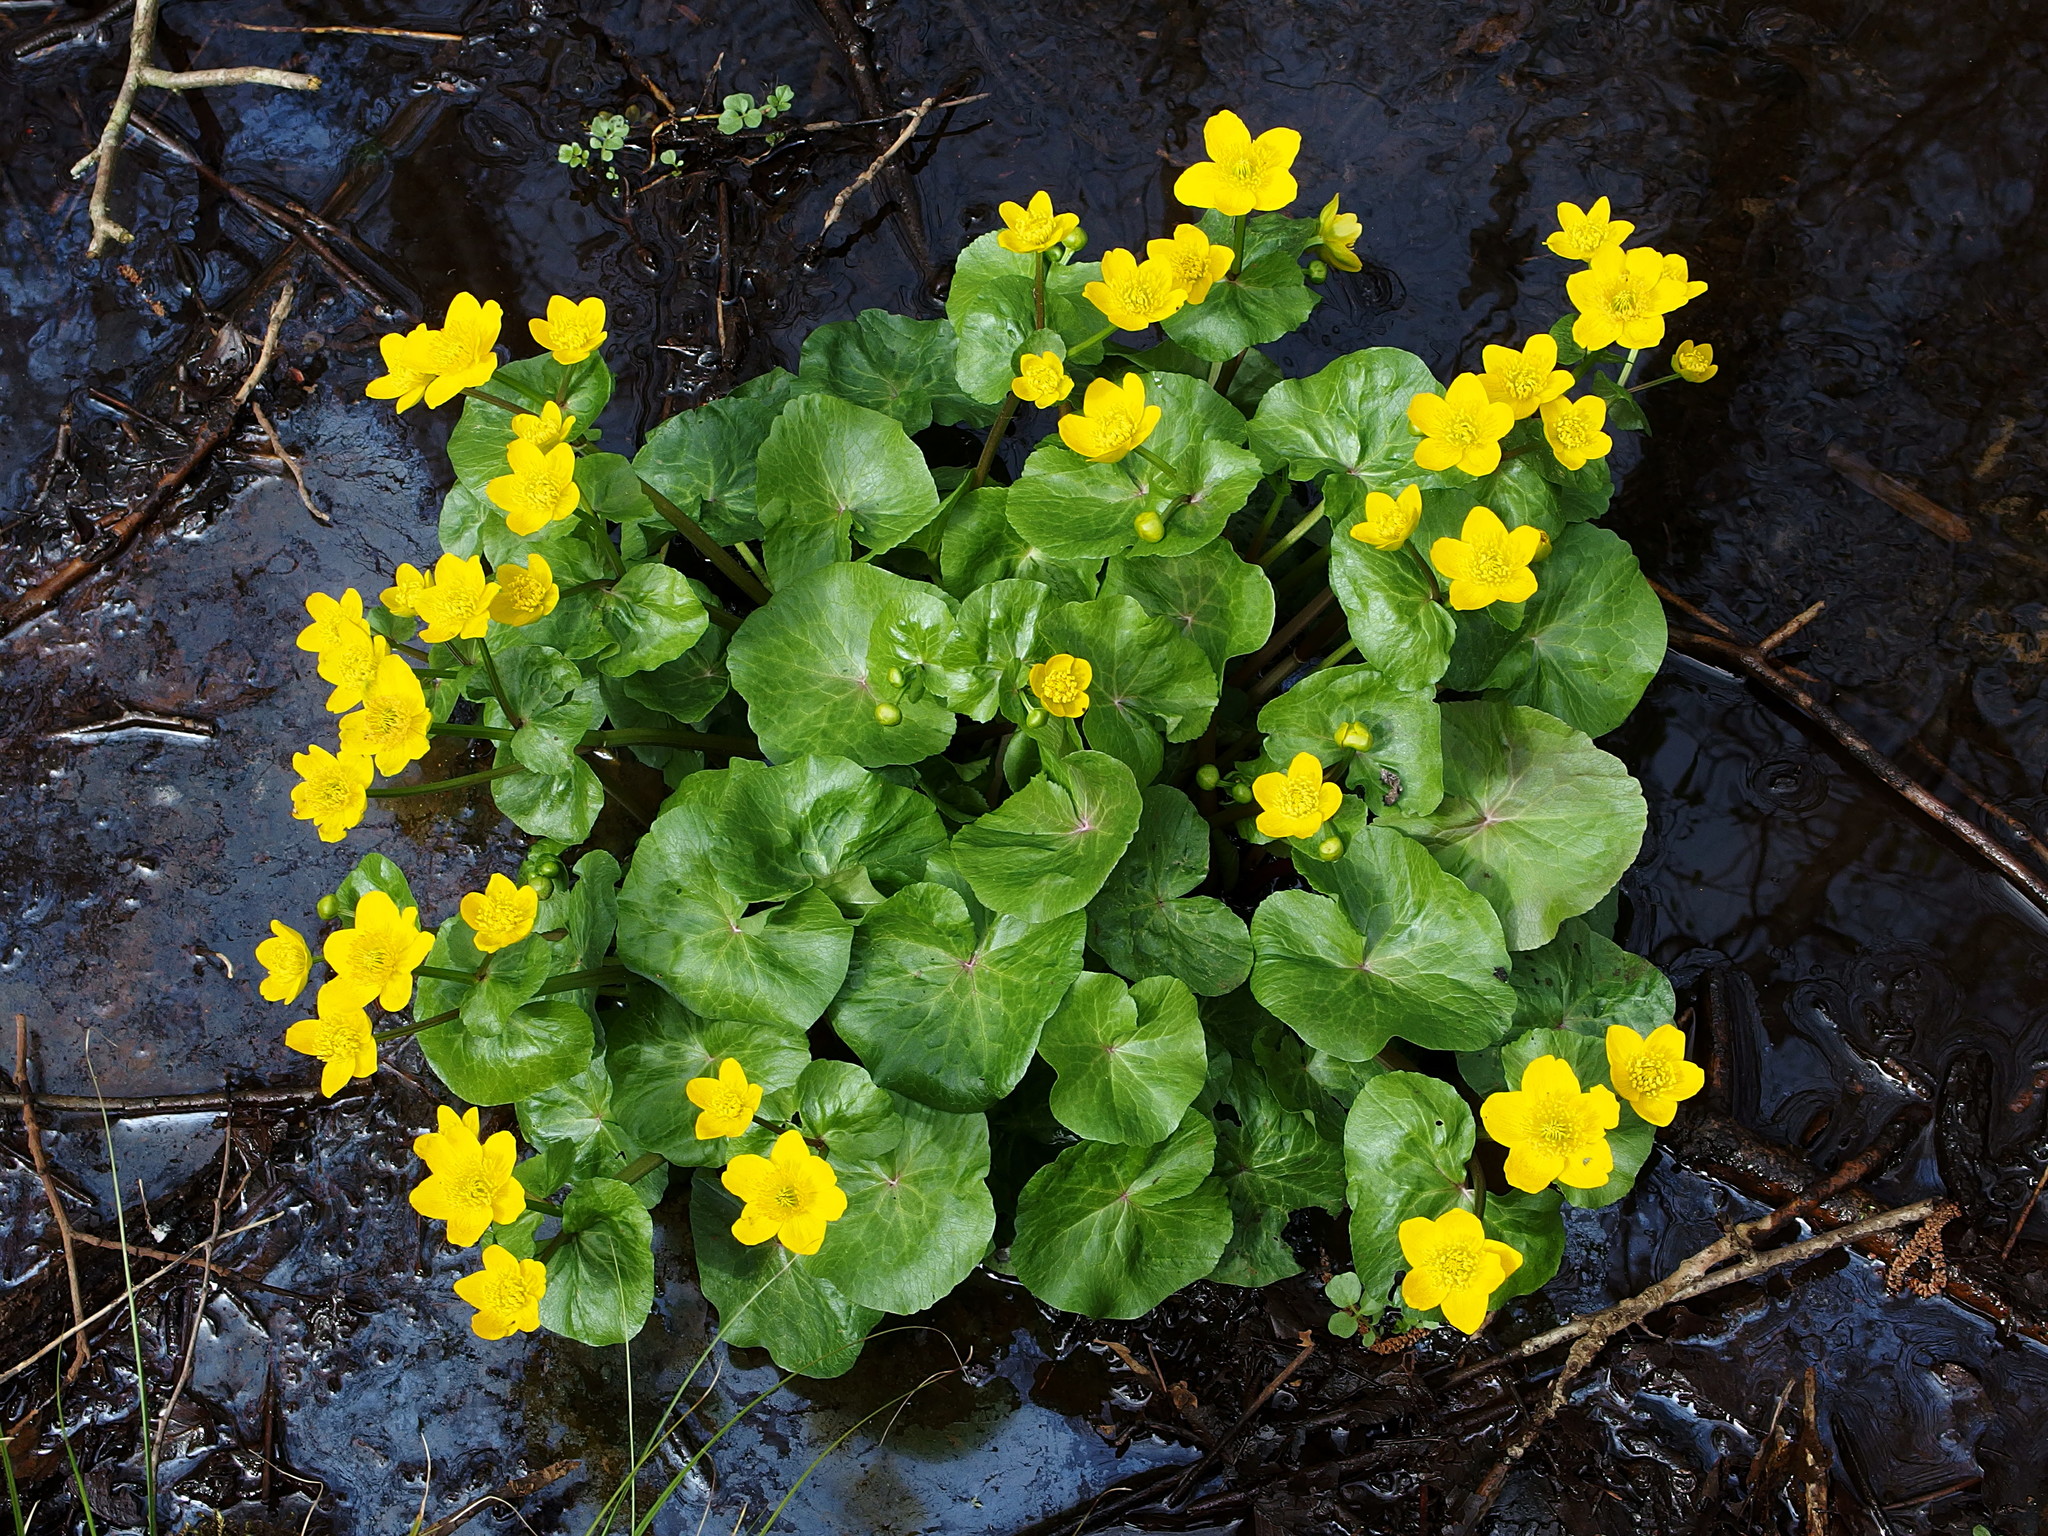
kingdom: Plantae
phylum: Tracheophyta
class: Magnoliopsida
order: Ranunculales
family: Ranunculaceae
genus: Caltha
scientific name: Caltha palustris
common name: Marsh marigold
